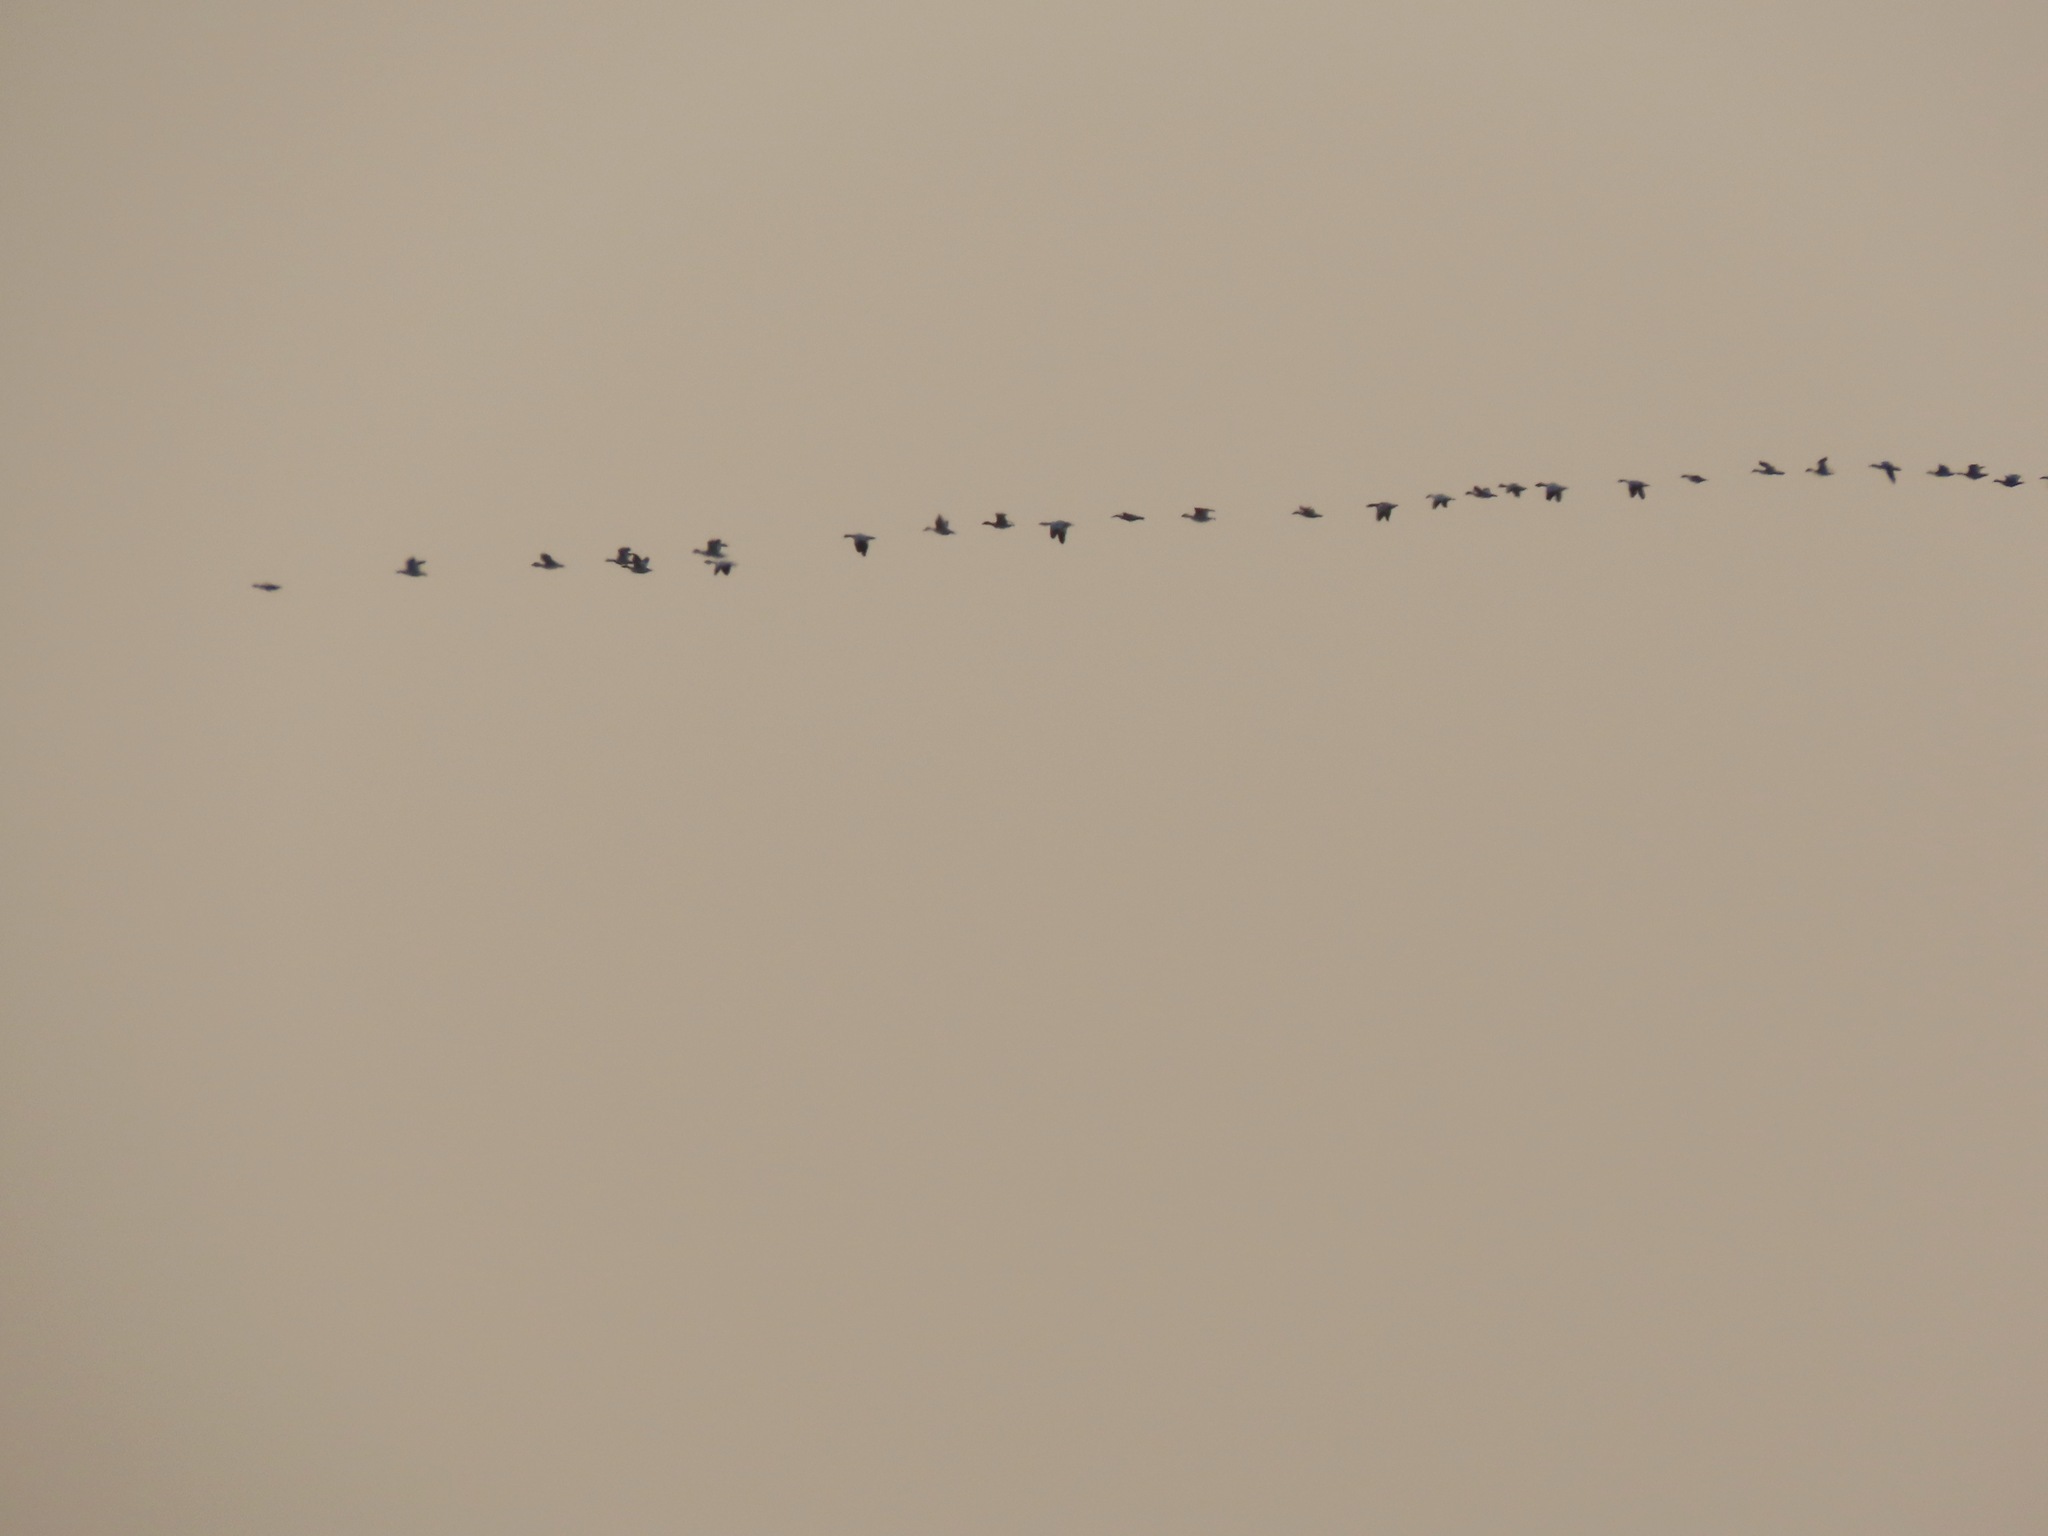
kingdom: Animalia
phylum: Chordata
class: Aves
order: Anseriformes
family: Anatidae
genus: Anser
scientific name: Anser caerulescens
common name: Snow goose
